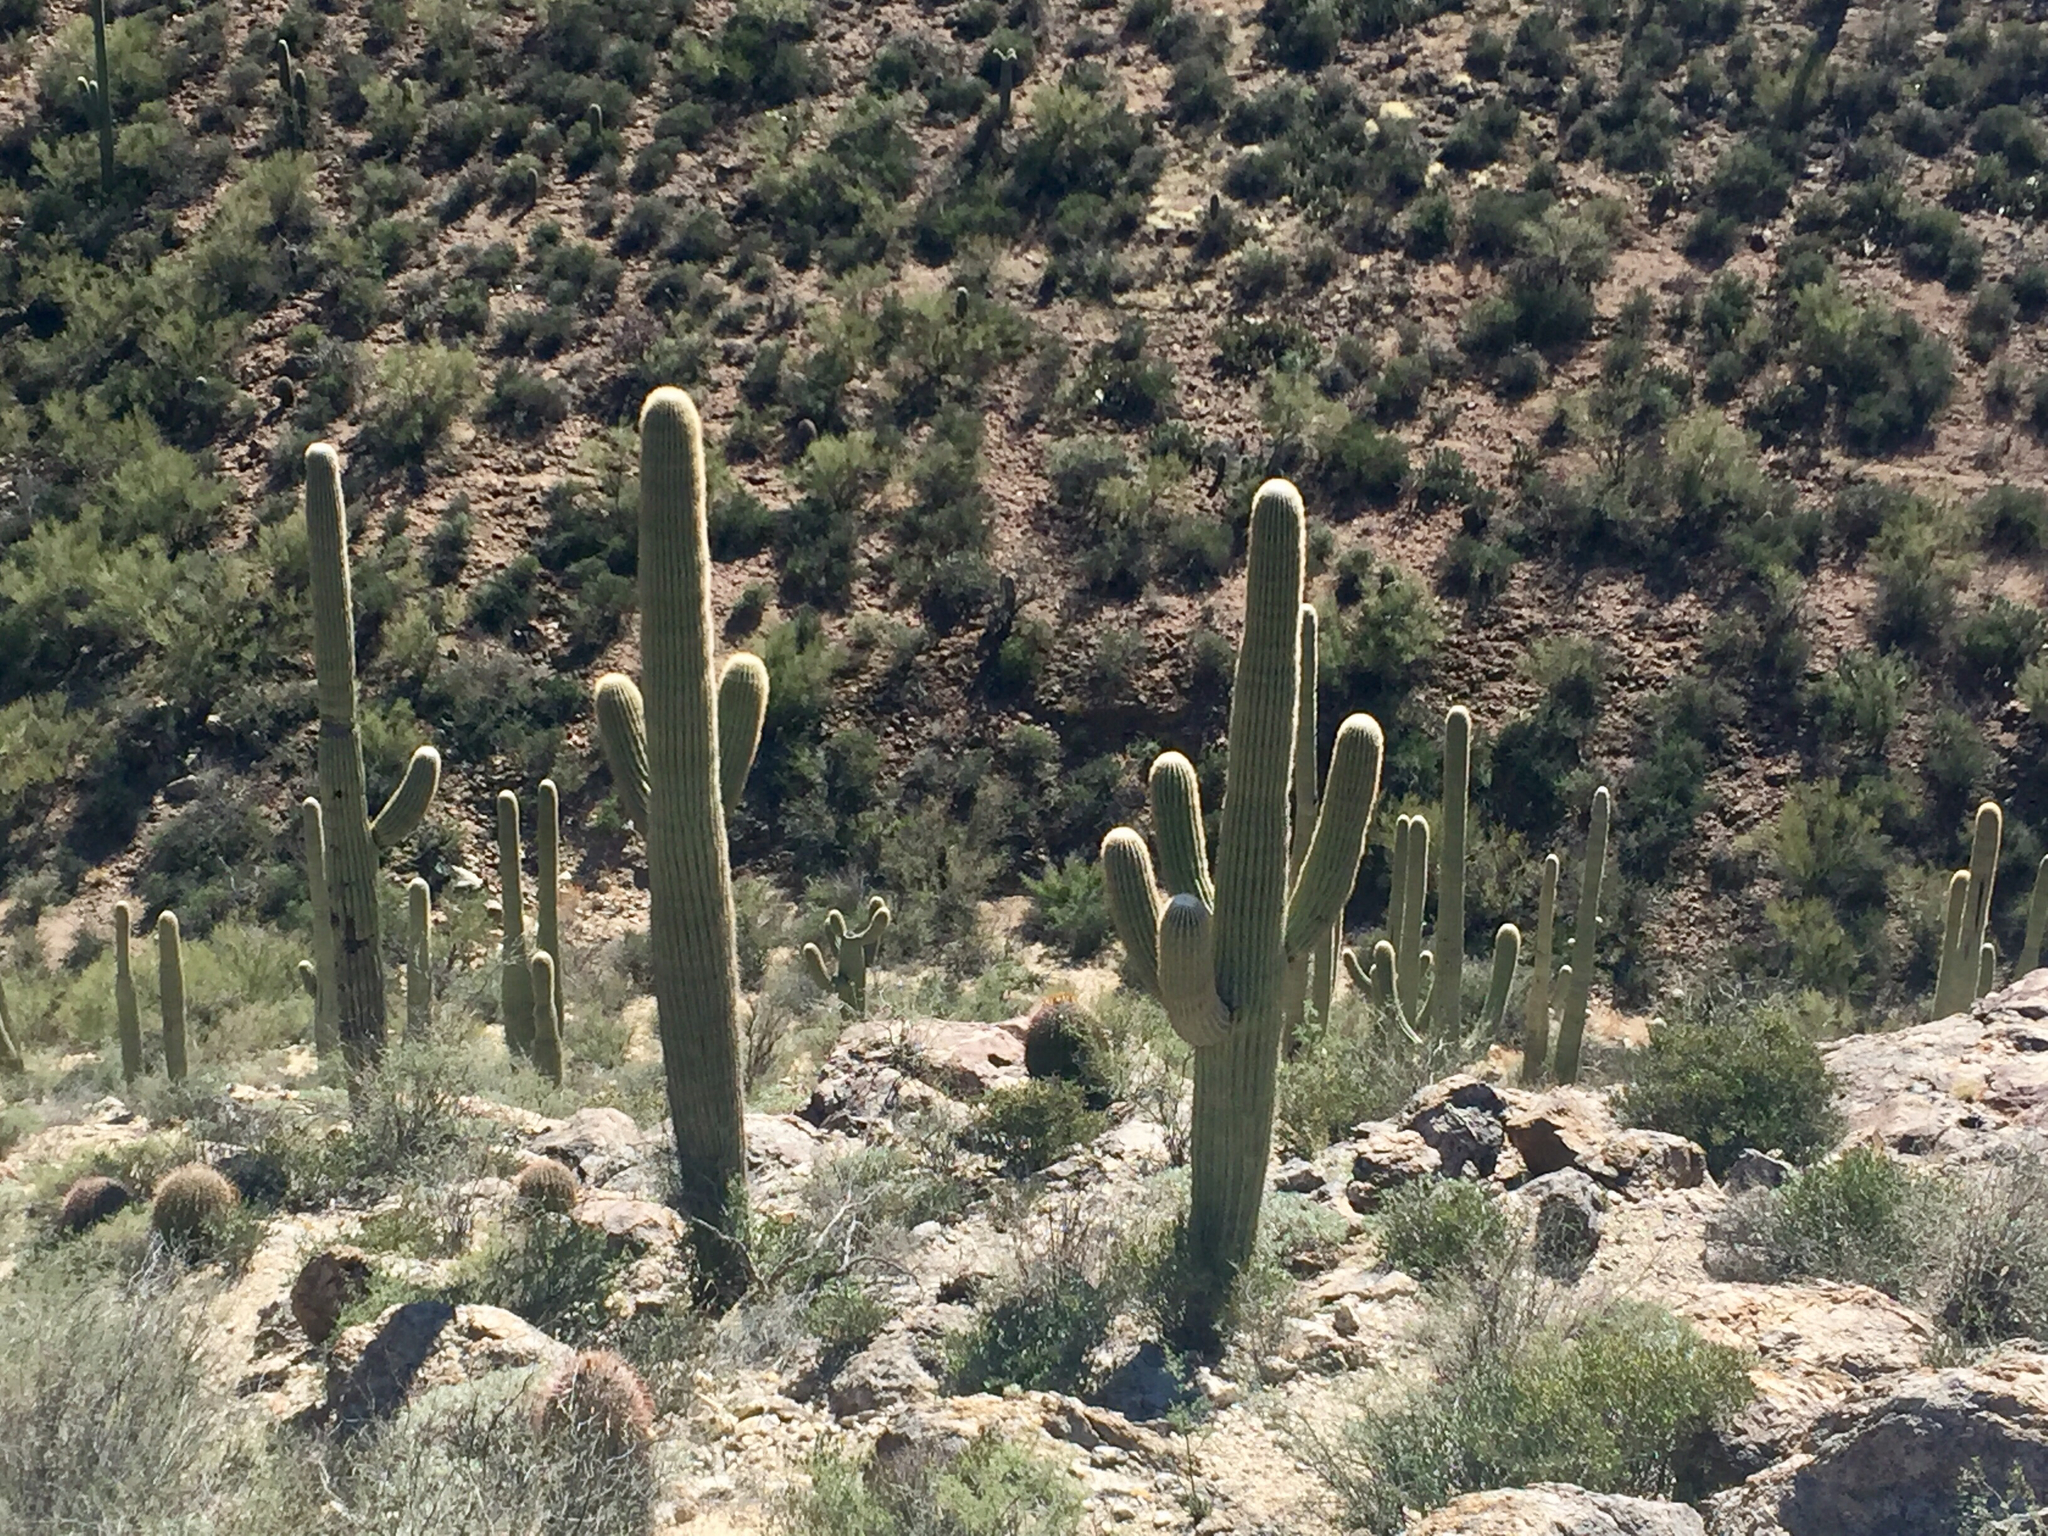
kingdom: Plantae
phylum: Tracheophyta
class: Magnoliopsida
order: Caryophyllales
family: Cactaceae
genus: Carnegiea
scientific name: Carnegiea gigantea
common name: Saguaro
